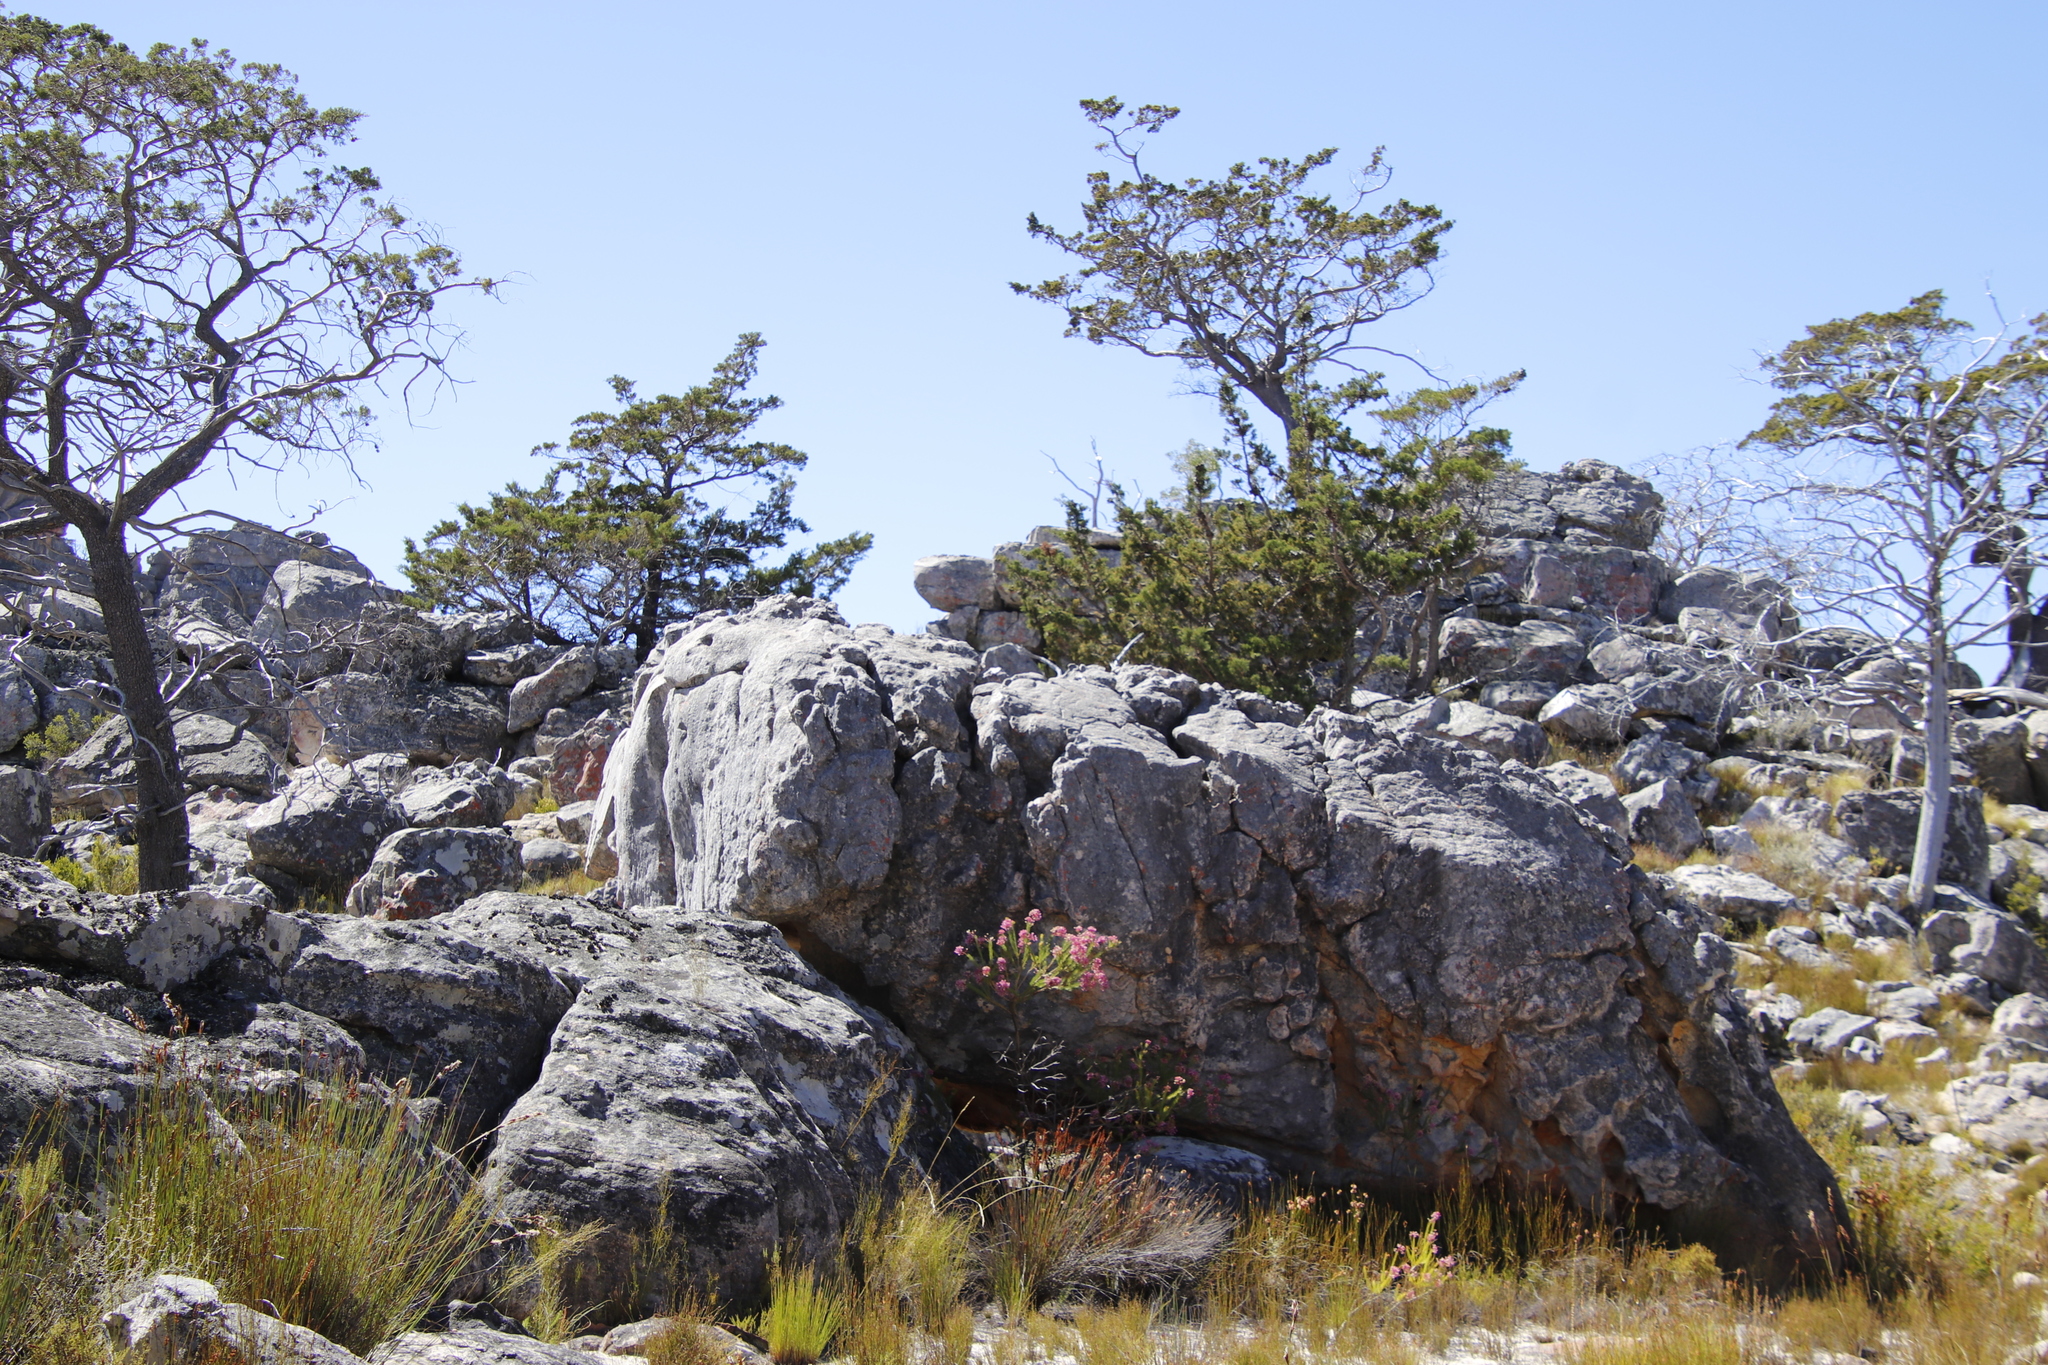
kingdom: Plantae
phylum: Tracheophyta
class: Magnoliopsida
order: Ericales
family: Ericaceae
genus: Erica
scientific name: Erica inflata
